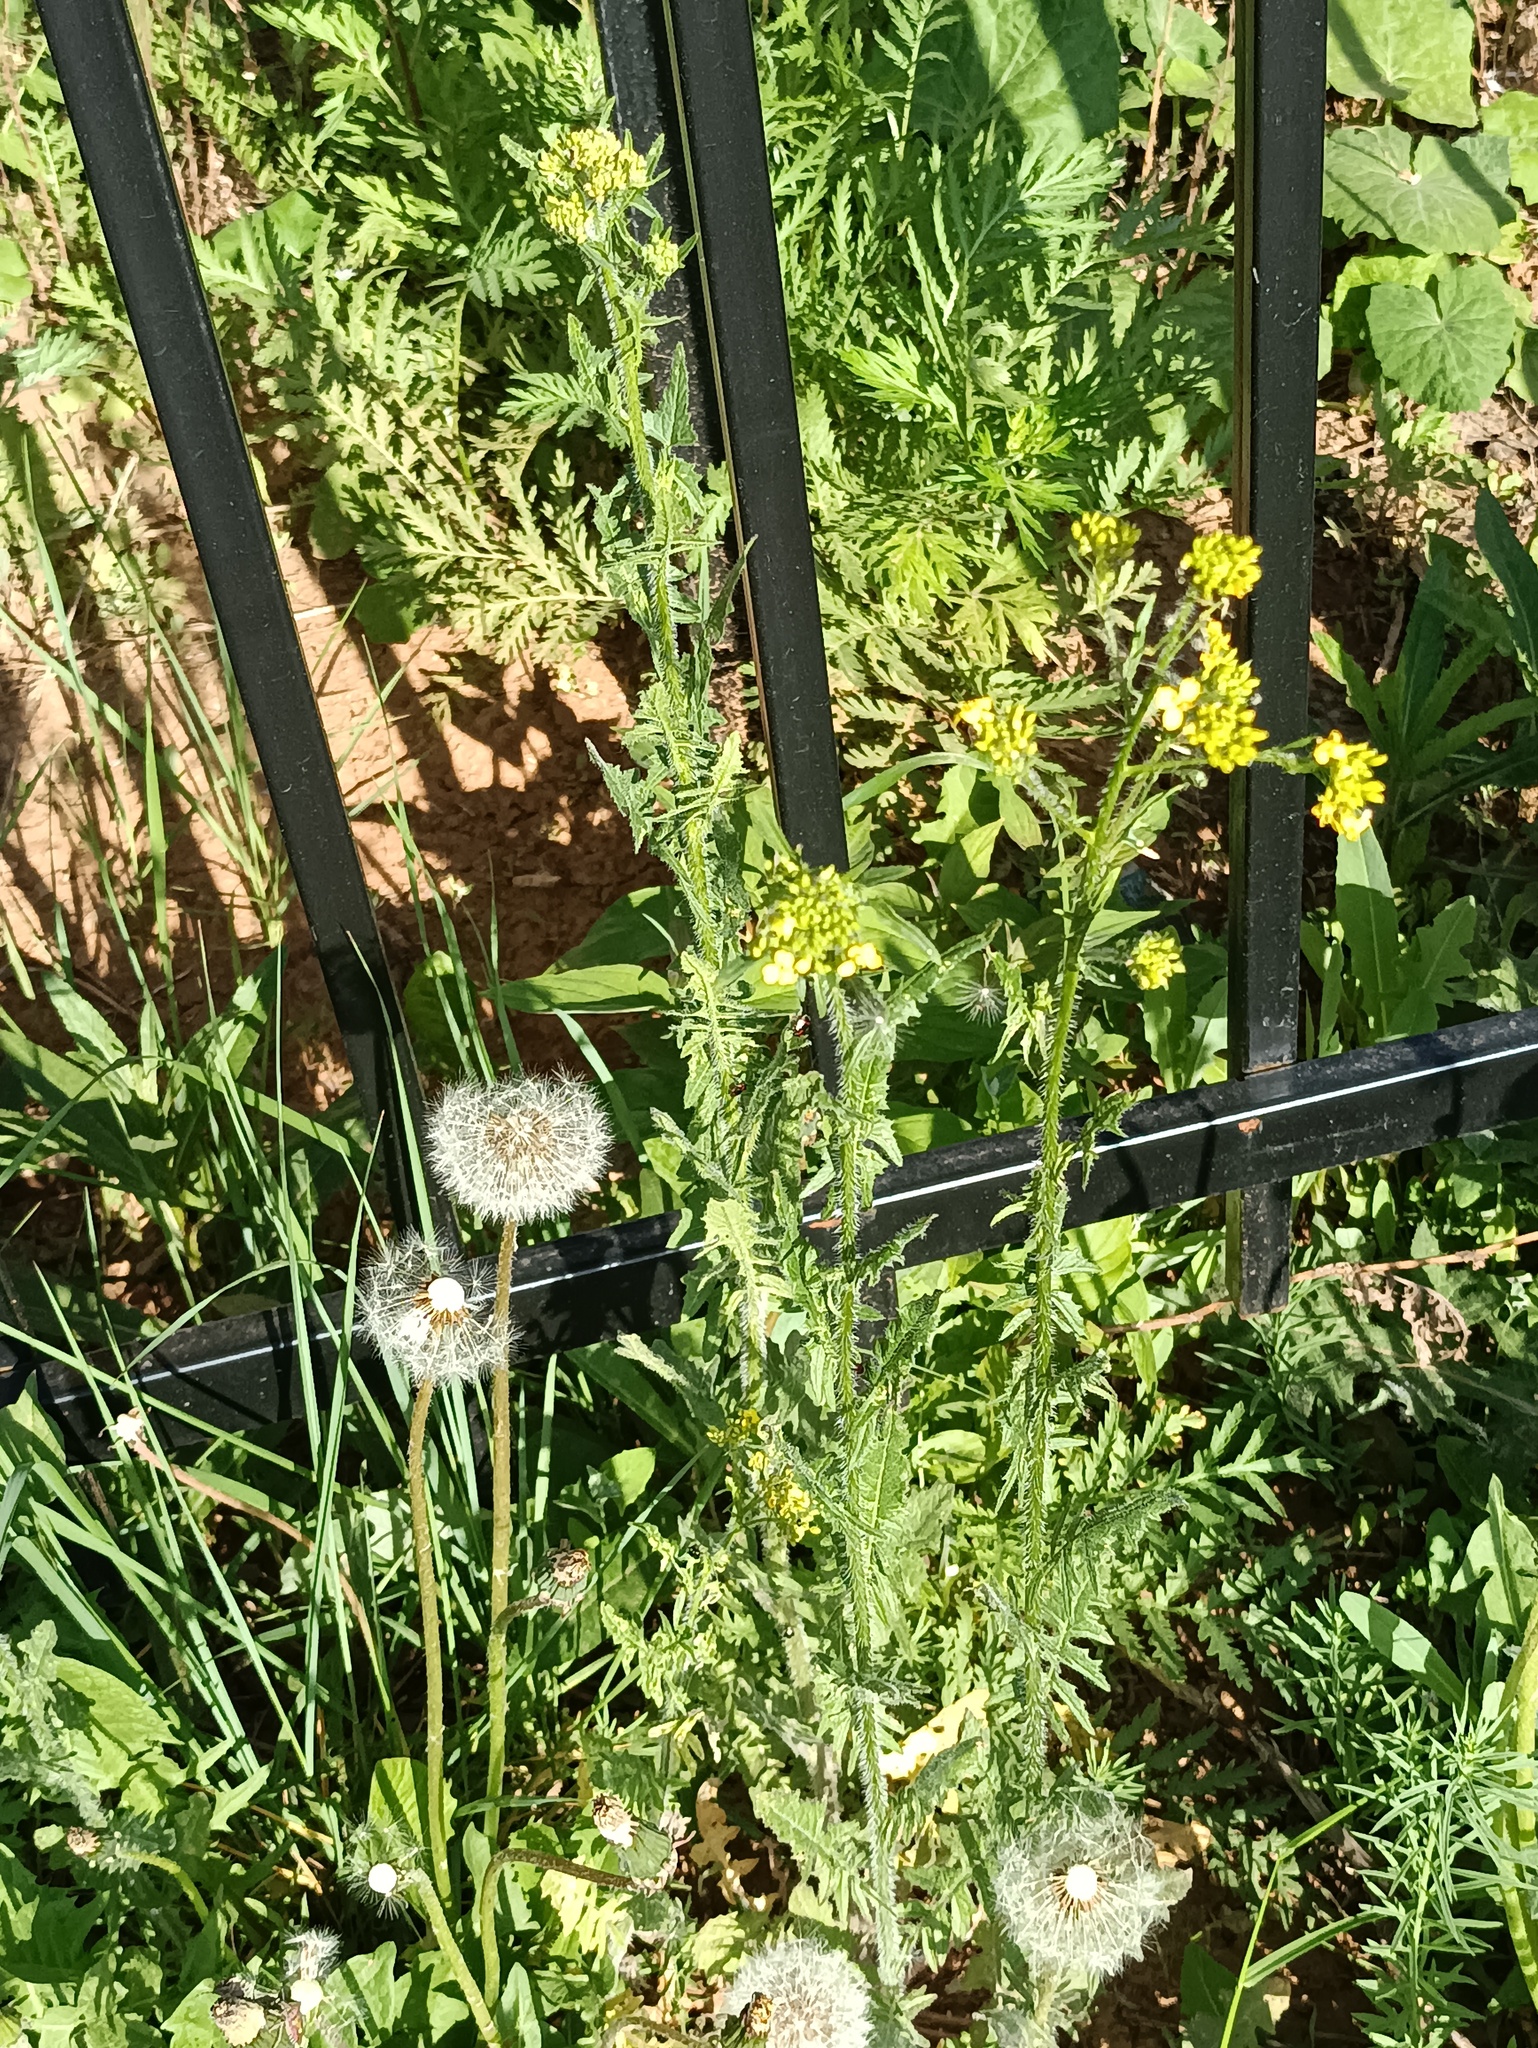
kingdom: Plantae
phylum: Tracheophyta
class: Magnoliopsida
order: Brassicales
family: Brassicaceae
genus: Sisymbrium
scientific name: Sisymbrium loeselii
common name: False london-rocket
